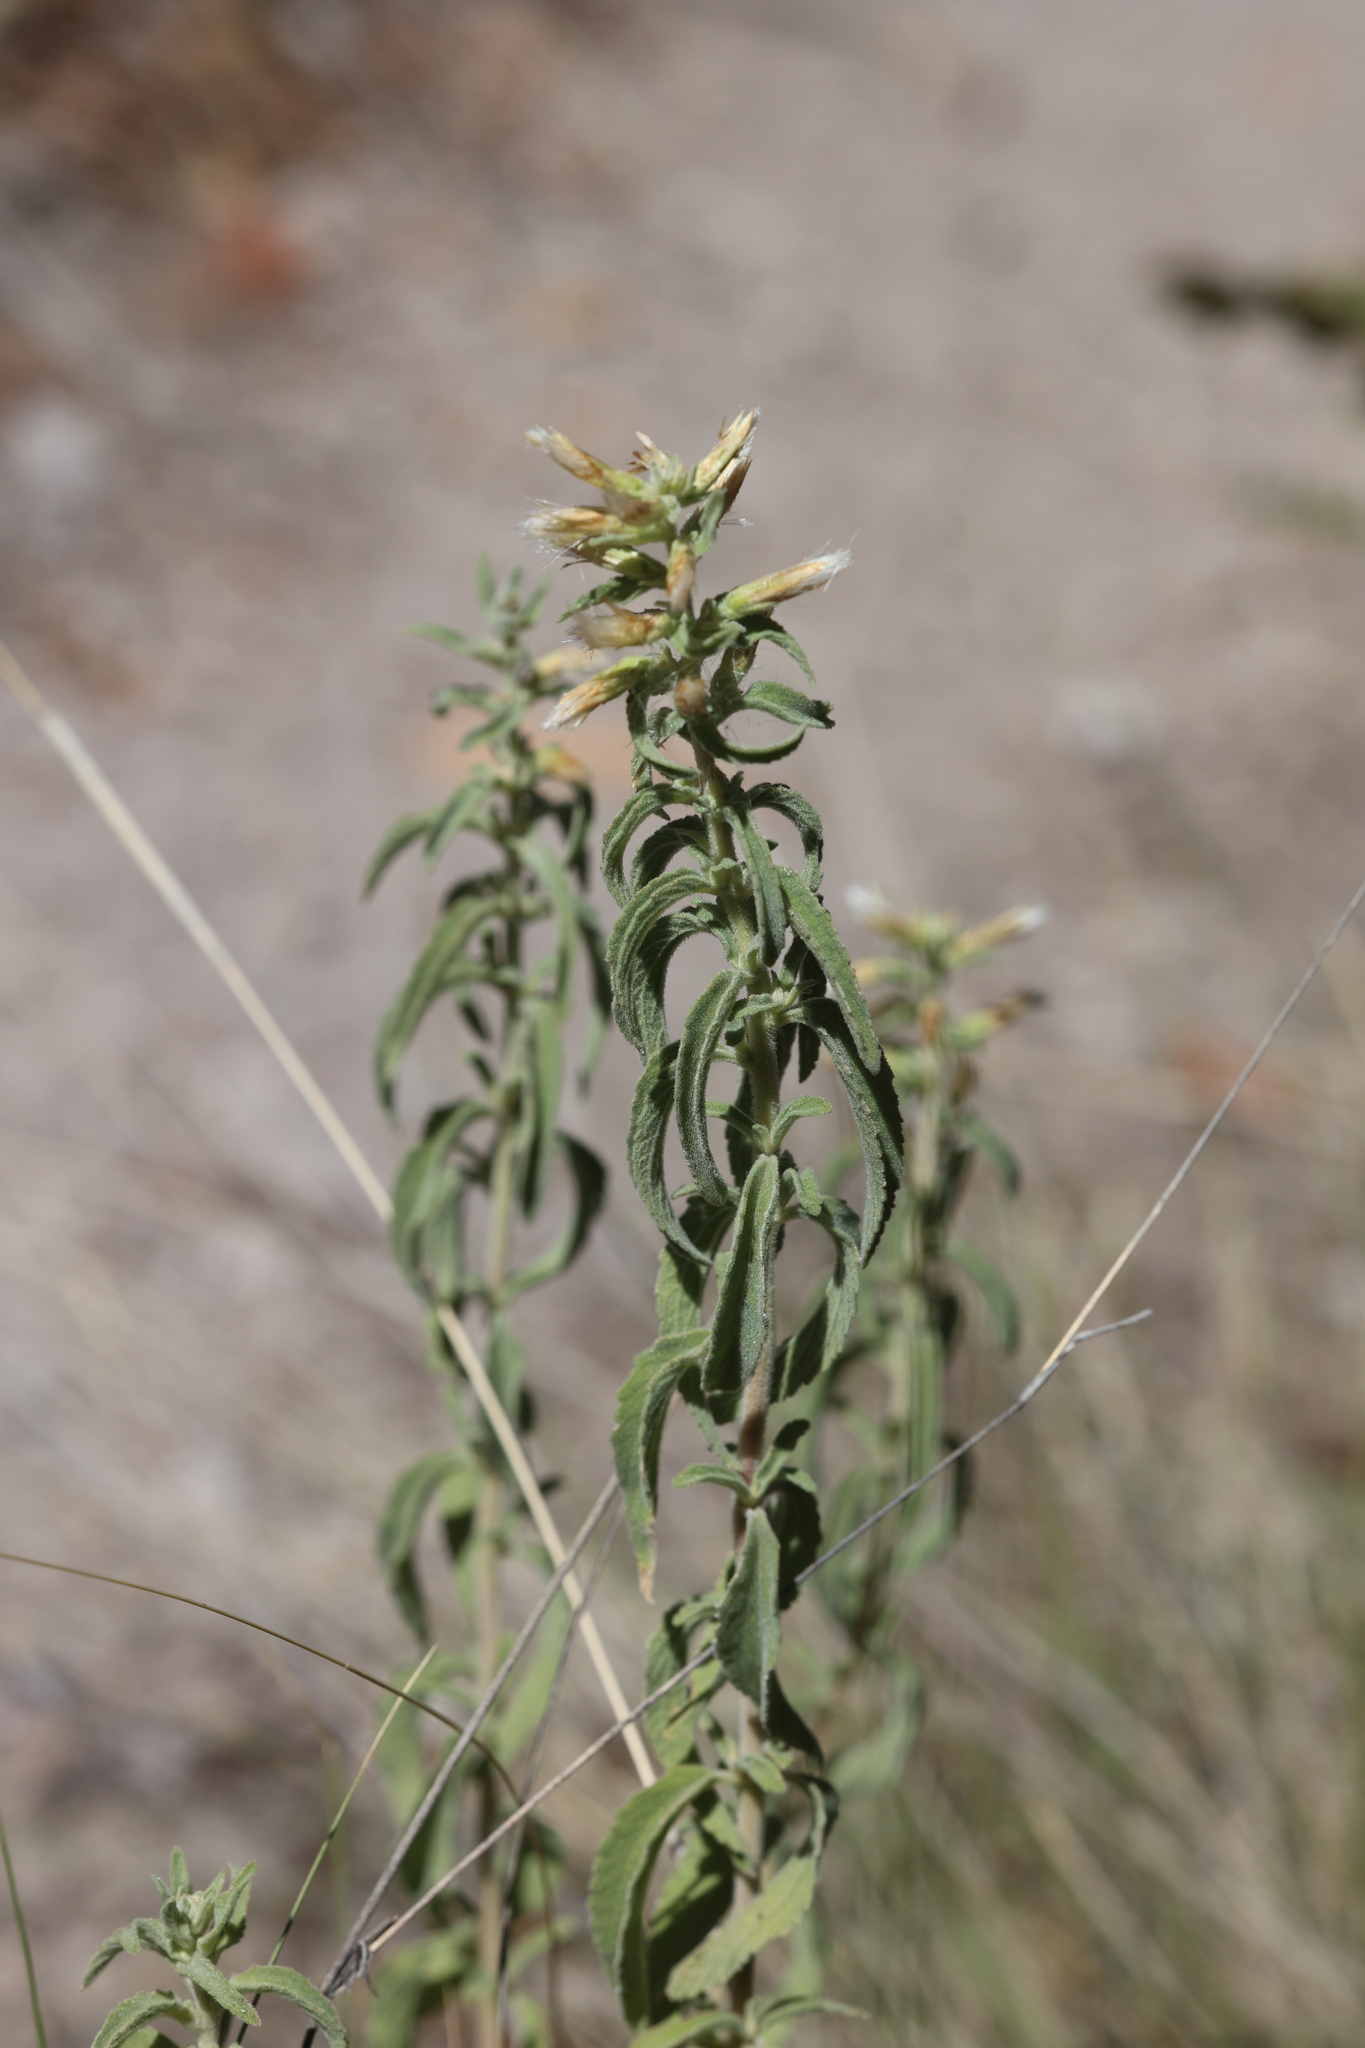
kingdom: Plantae
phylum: Tracheophyta
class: Magnoliopsida
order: Asterales
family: Asteraceae
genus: Brickellia
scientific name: Brickellia lemmonii
